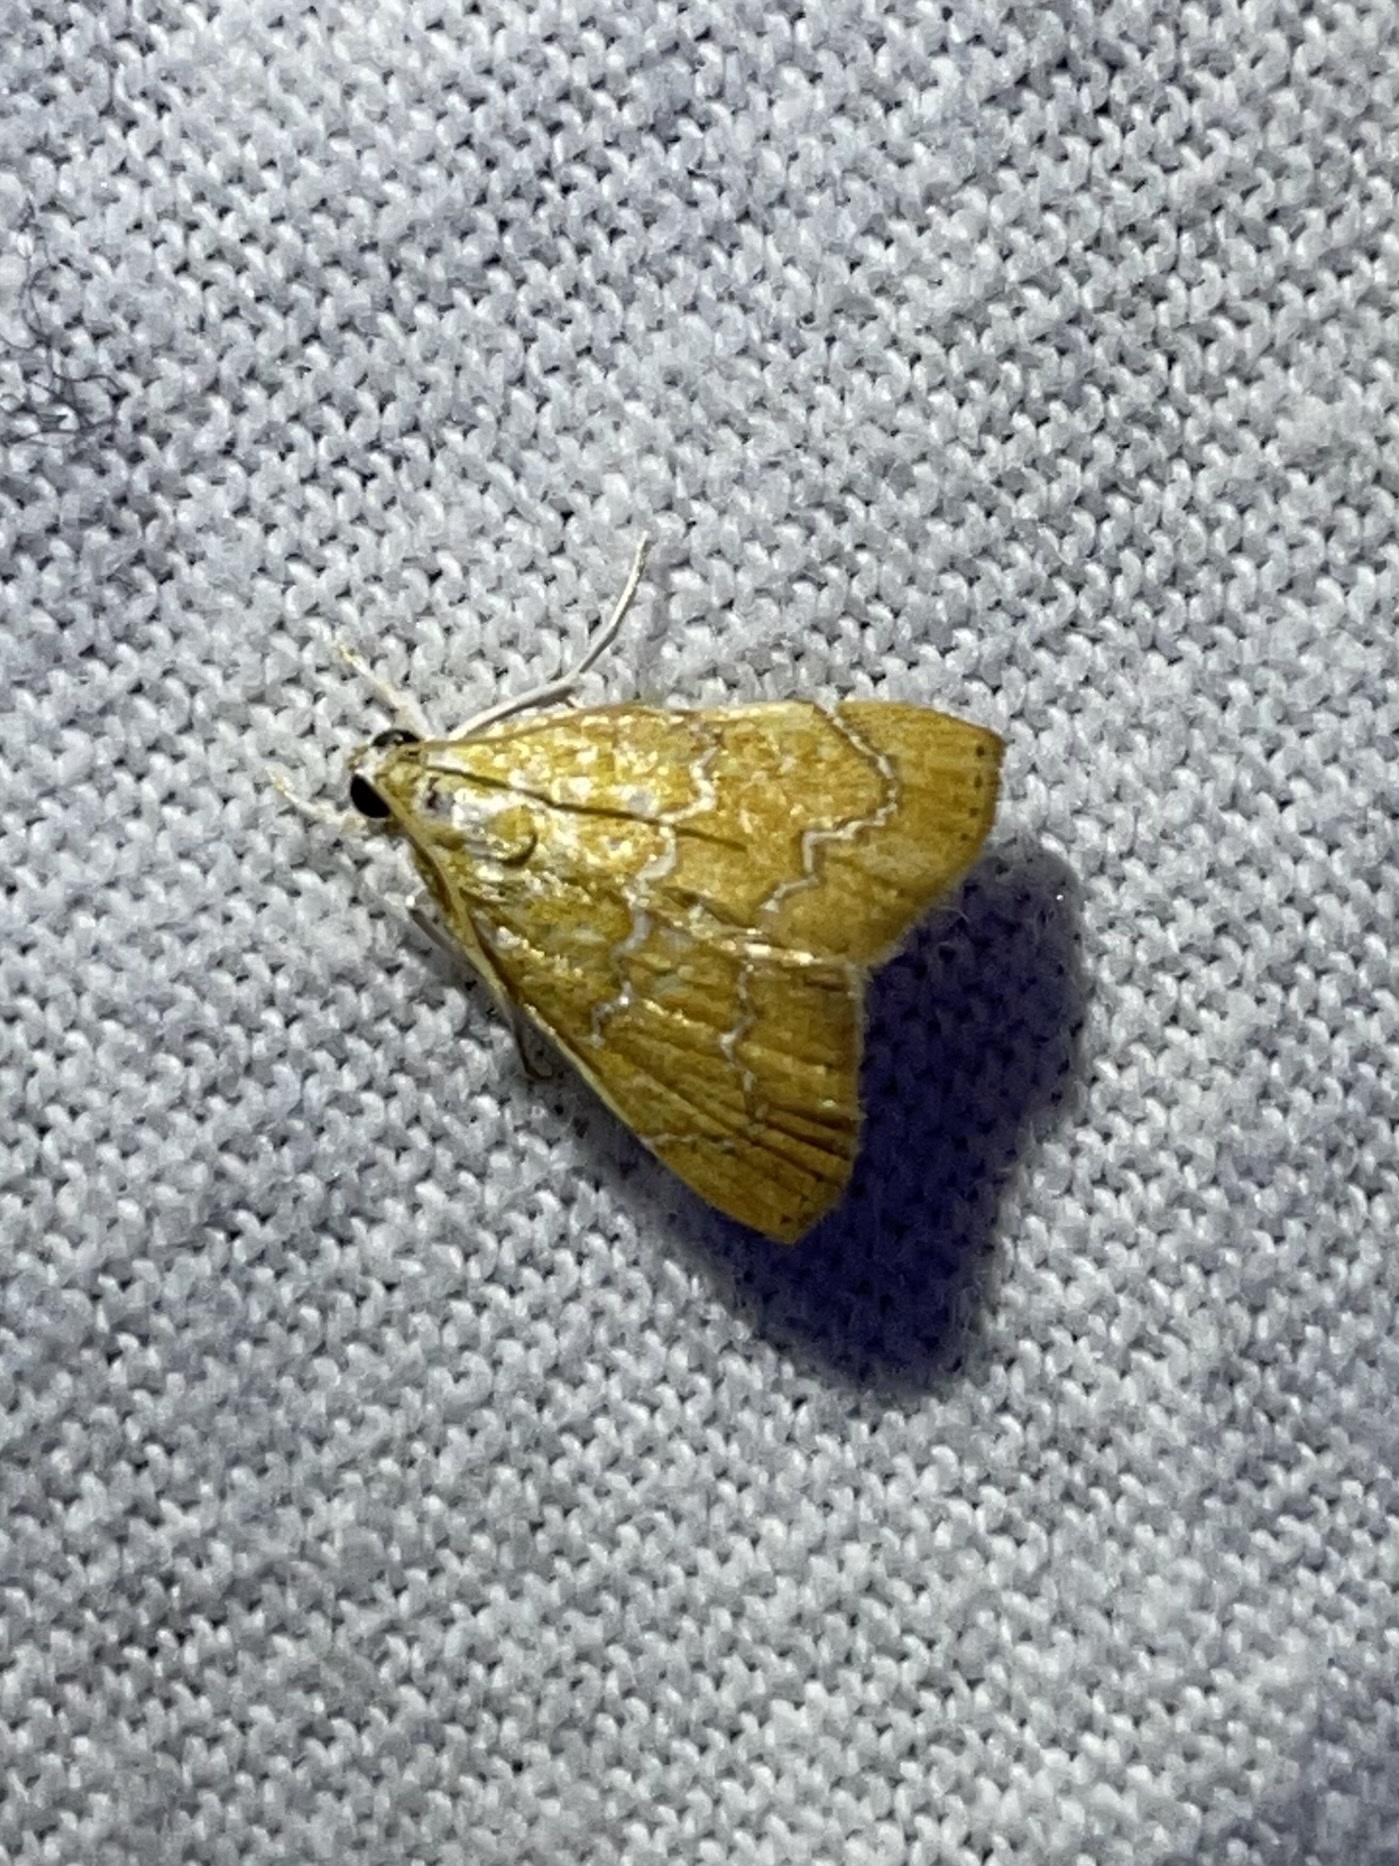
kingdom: Animalia
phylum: Arthropoda
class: Insecta
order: Lepidoptera
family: Crambidae
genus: Glaphyria
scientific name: Glaphyria sesquistrialis
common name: White-roped glaphyria
